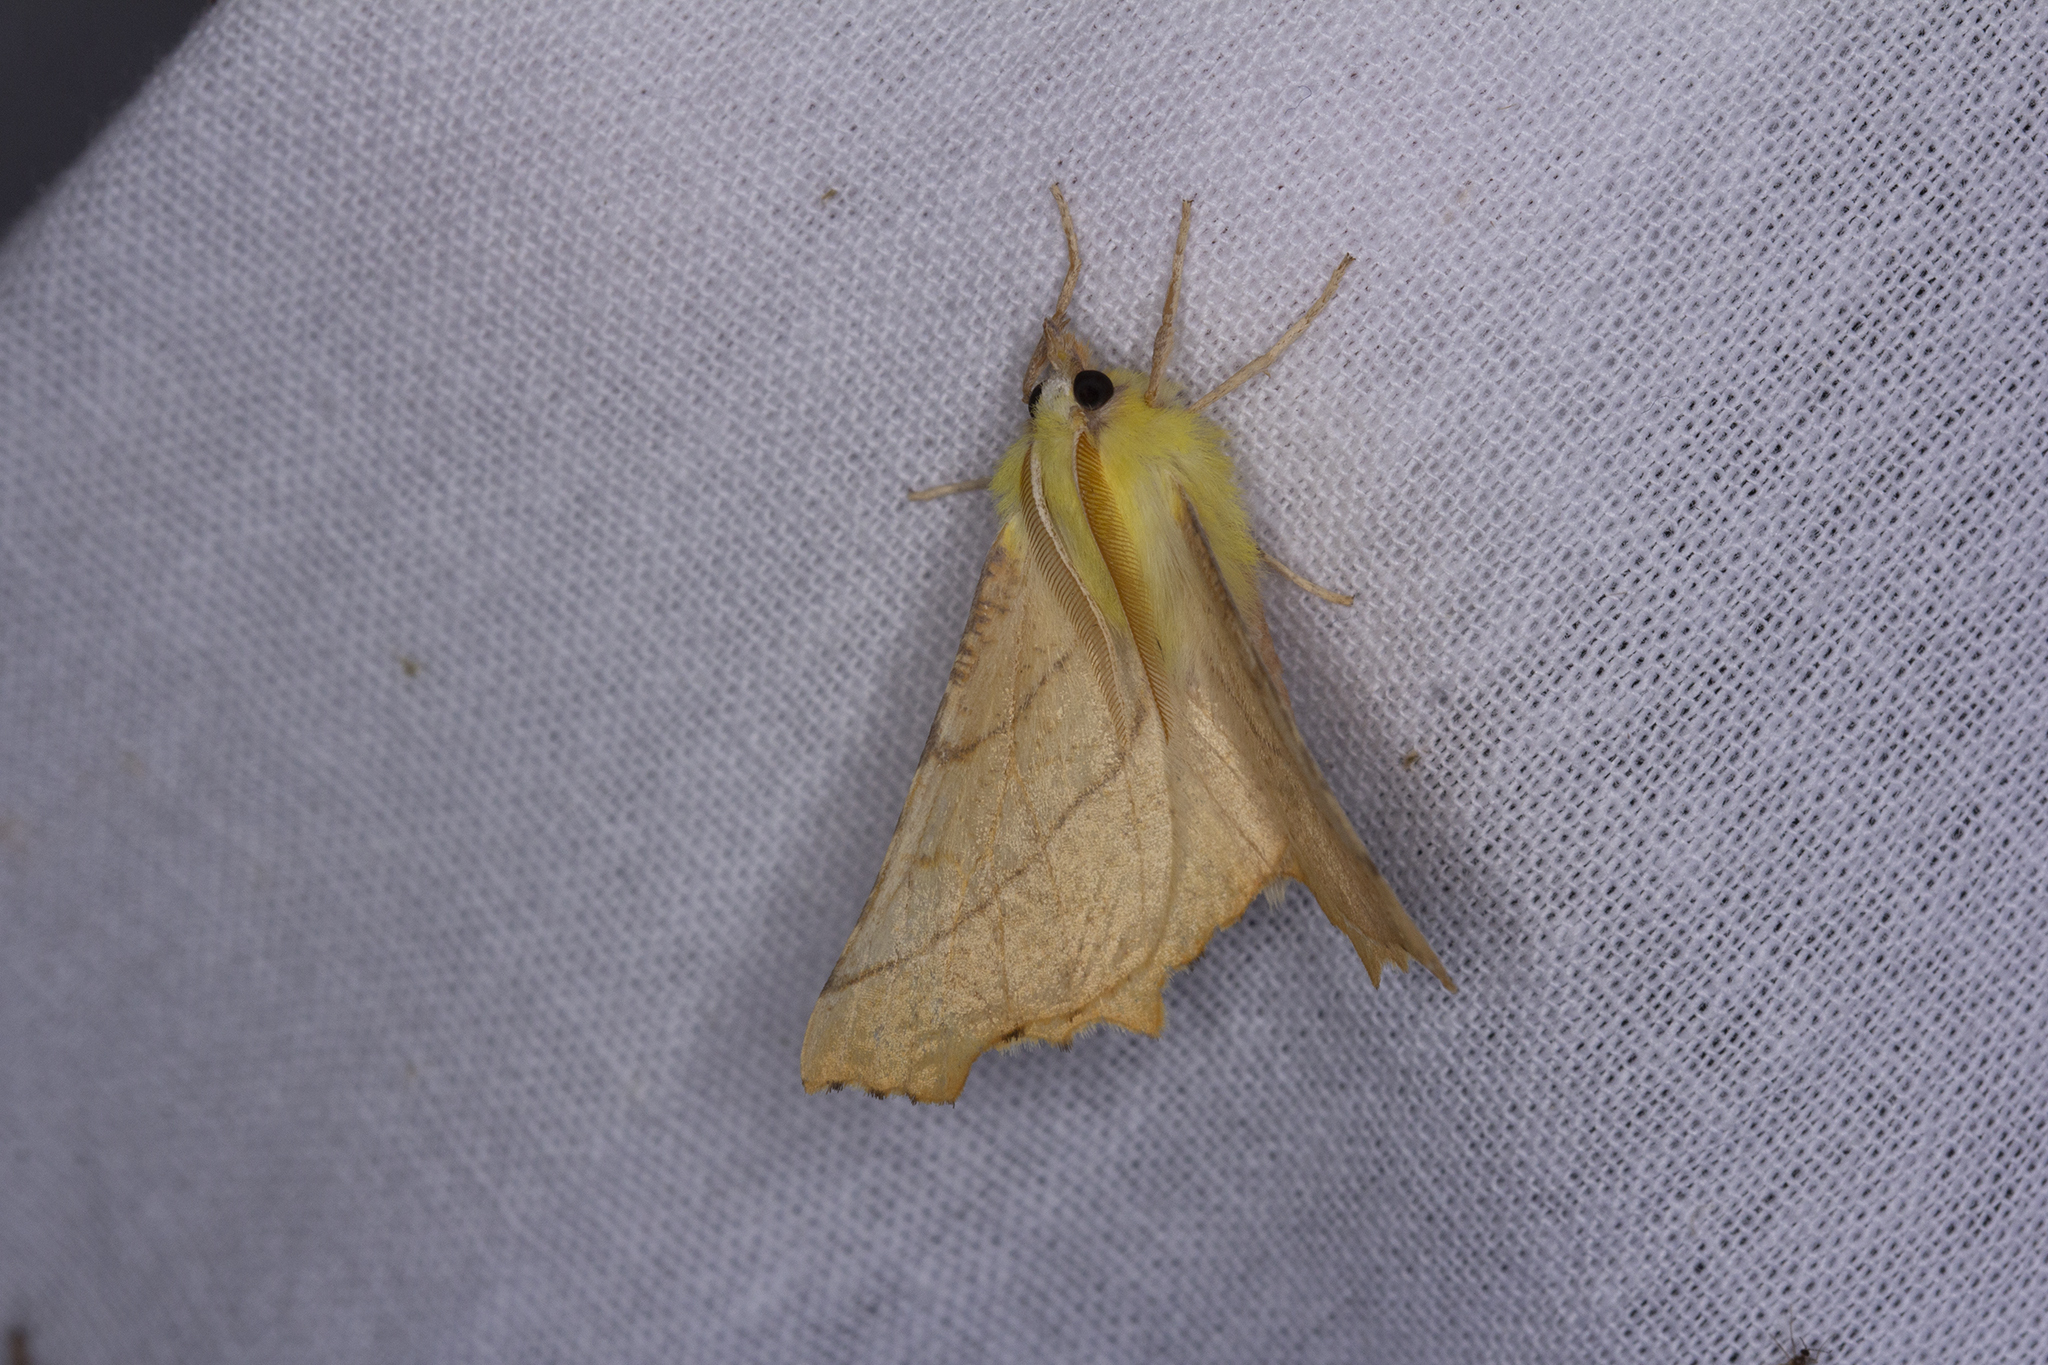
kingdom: Animalia
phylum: Arthropoda
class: Insecta
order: Lepidoptera
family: Geometridae
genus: Ennomos
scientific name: Ennomos alniaria
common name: Canary-shouldered thorn
